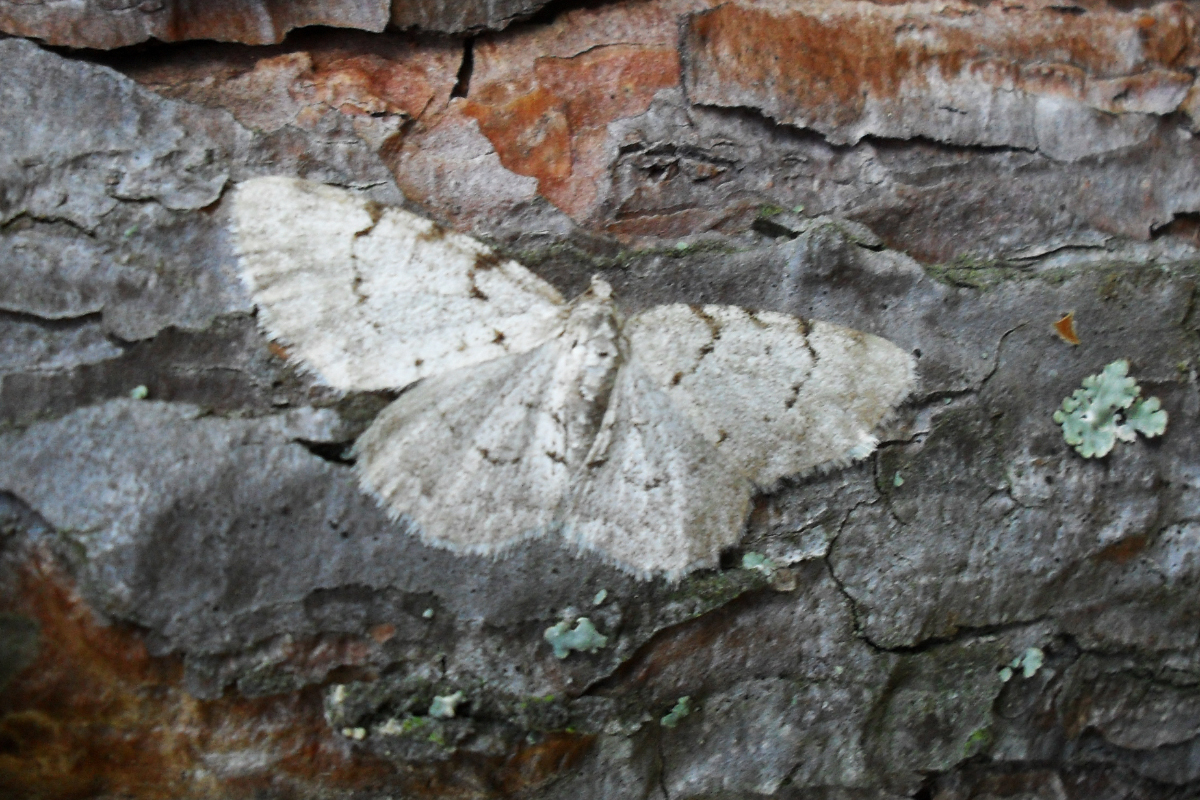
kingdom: Animalia
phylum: Arthropoda
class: Insecta
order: Lepidoptera
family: Geometridae
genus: Aethalura
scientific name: Aethalura punctulata
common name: Grey birch
